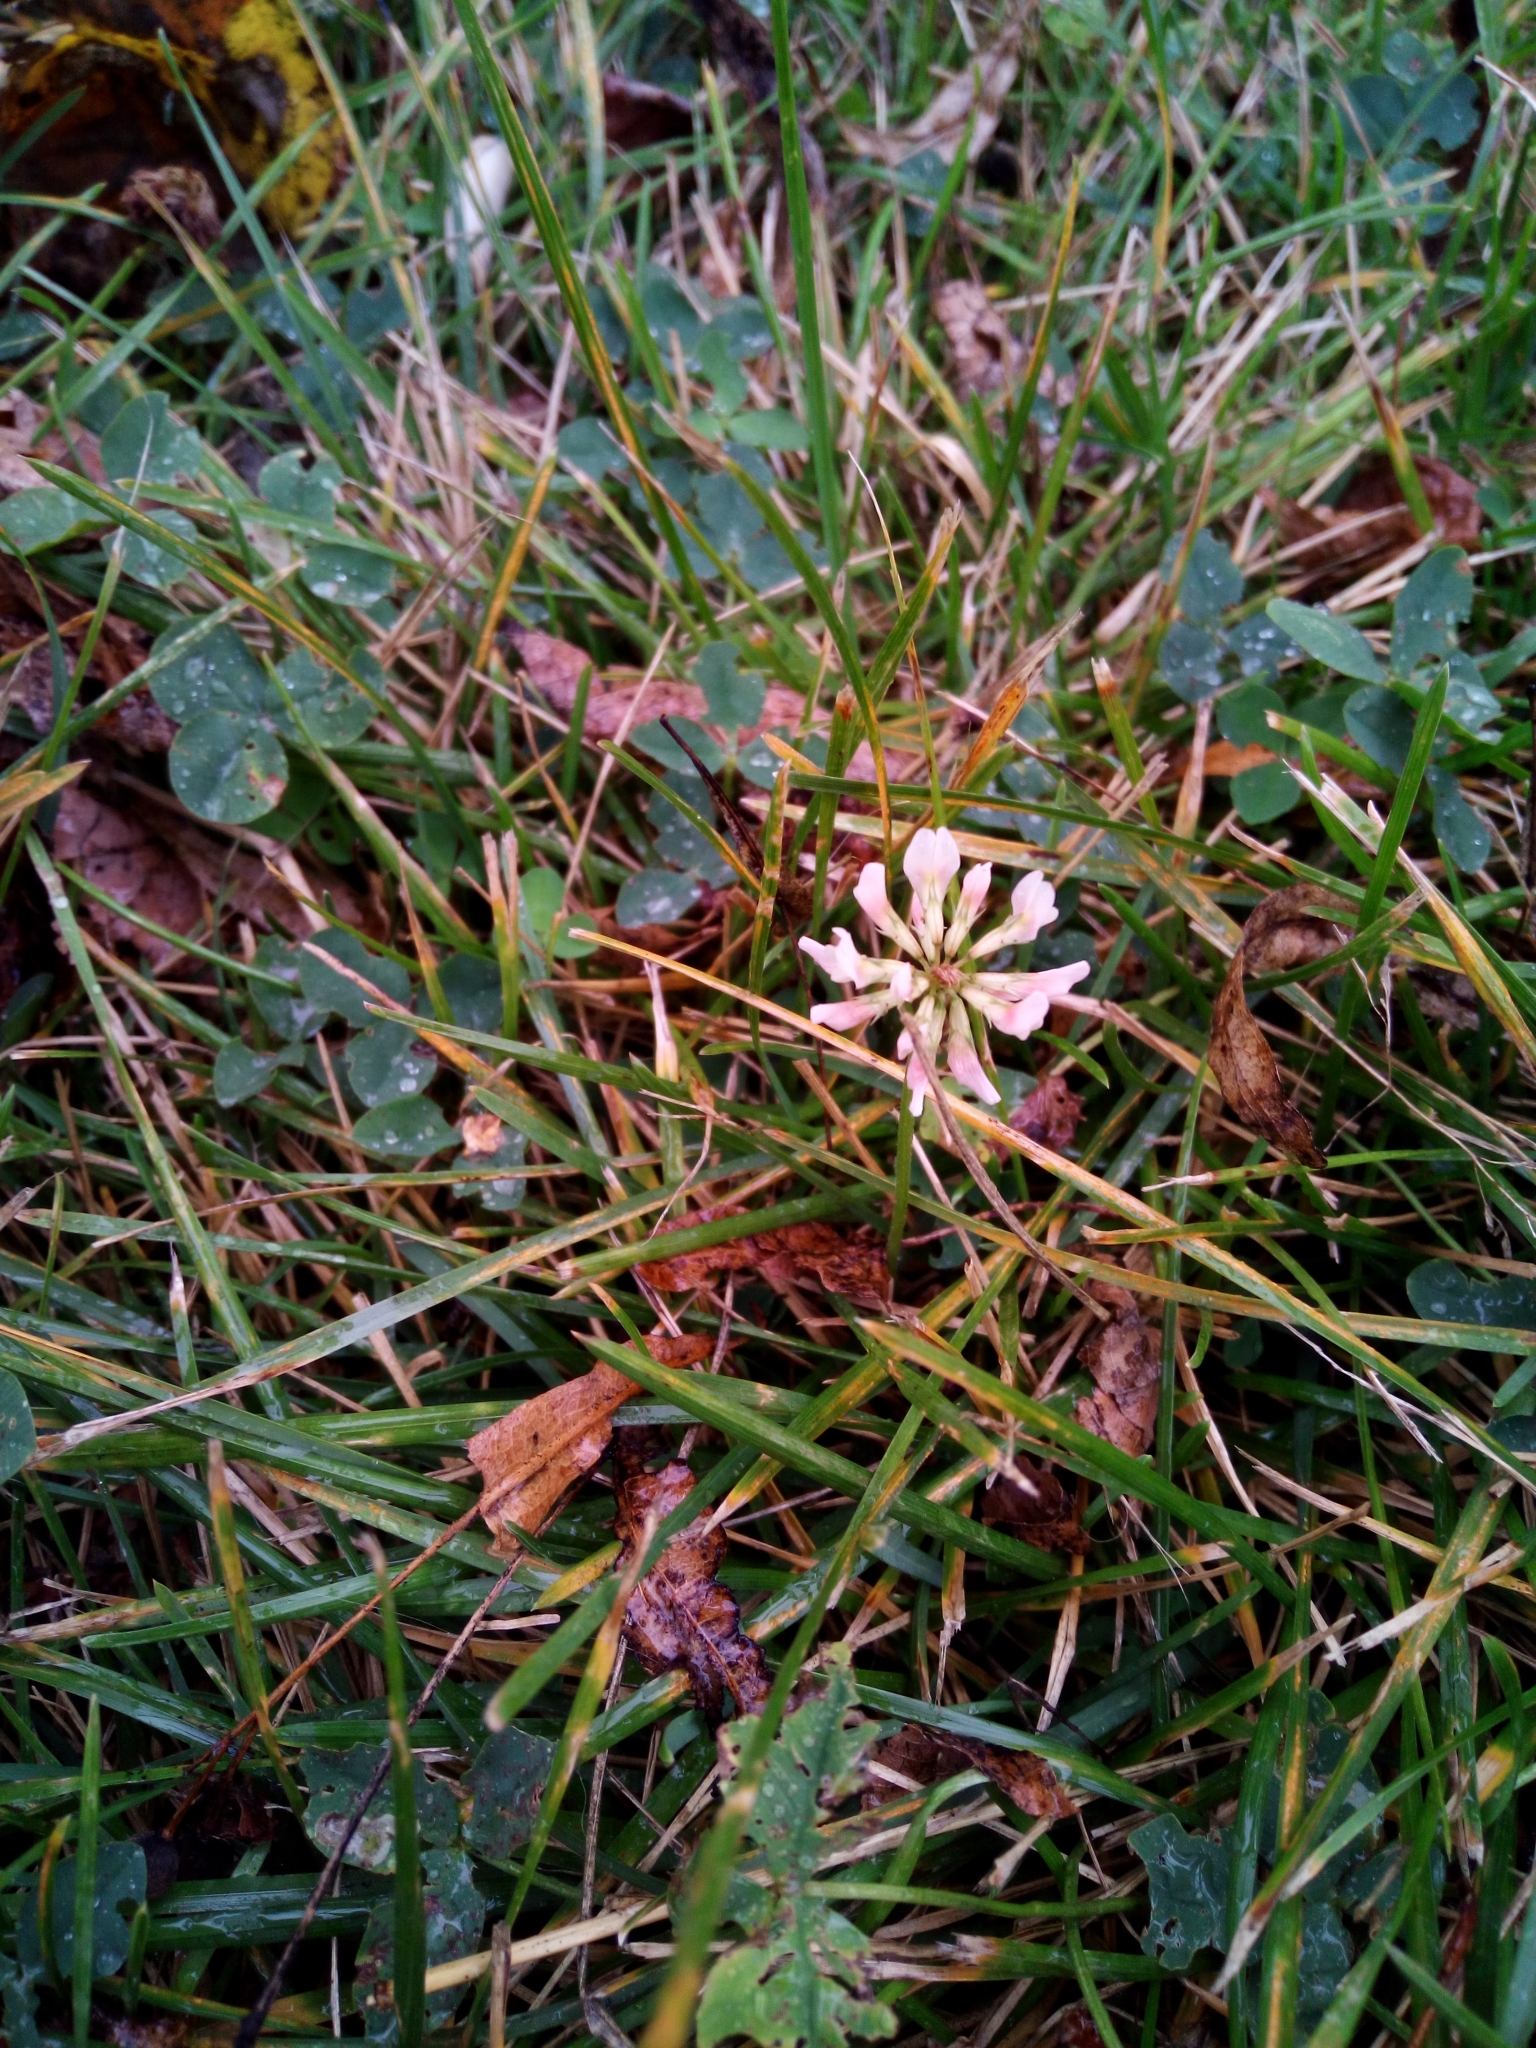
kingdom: Plantae
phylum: Tracheophyta
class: Magnoliopsida
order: Fabales
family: Fabaceae
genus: Trifolium
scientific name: Trifolium repens
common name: White clover
